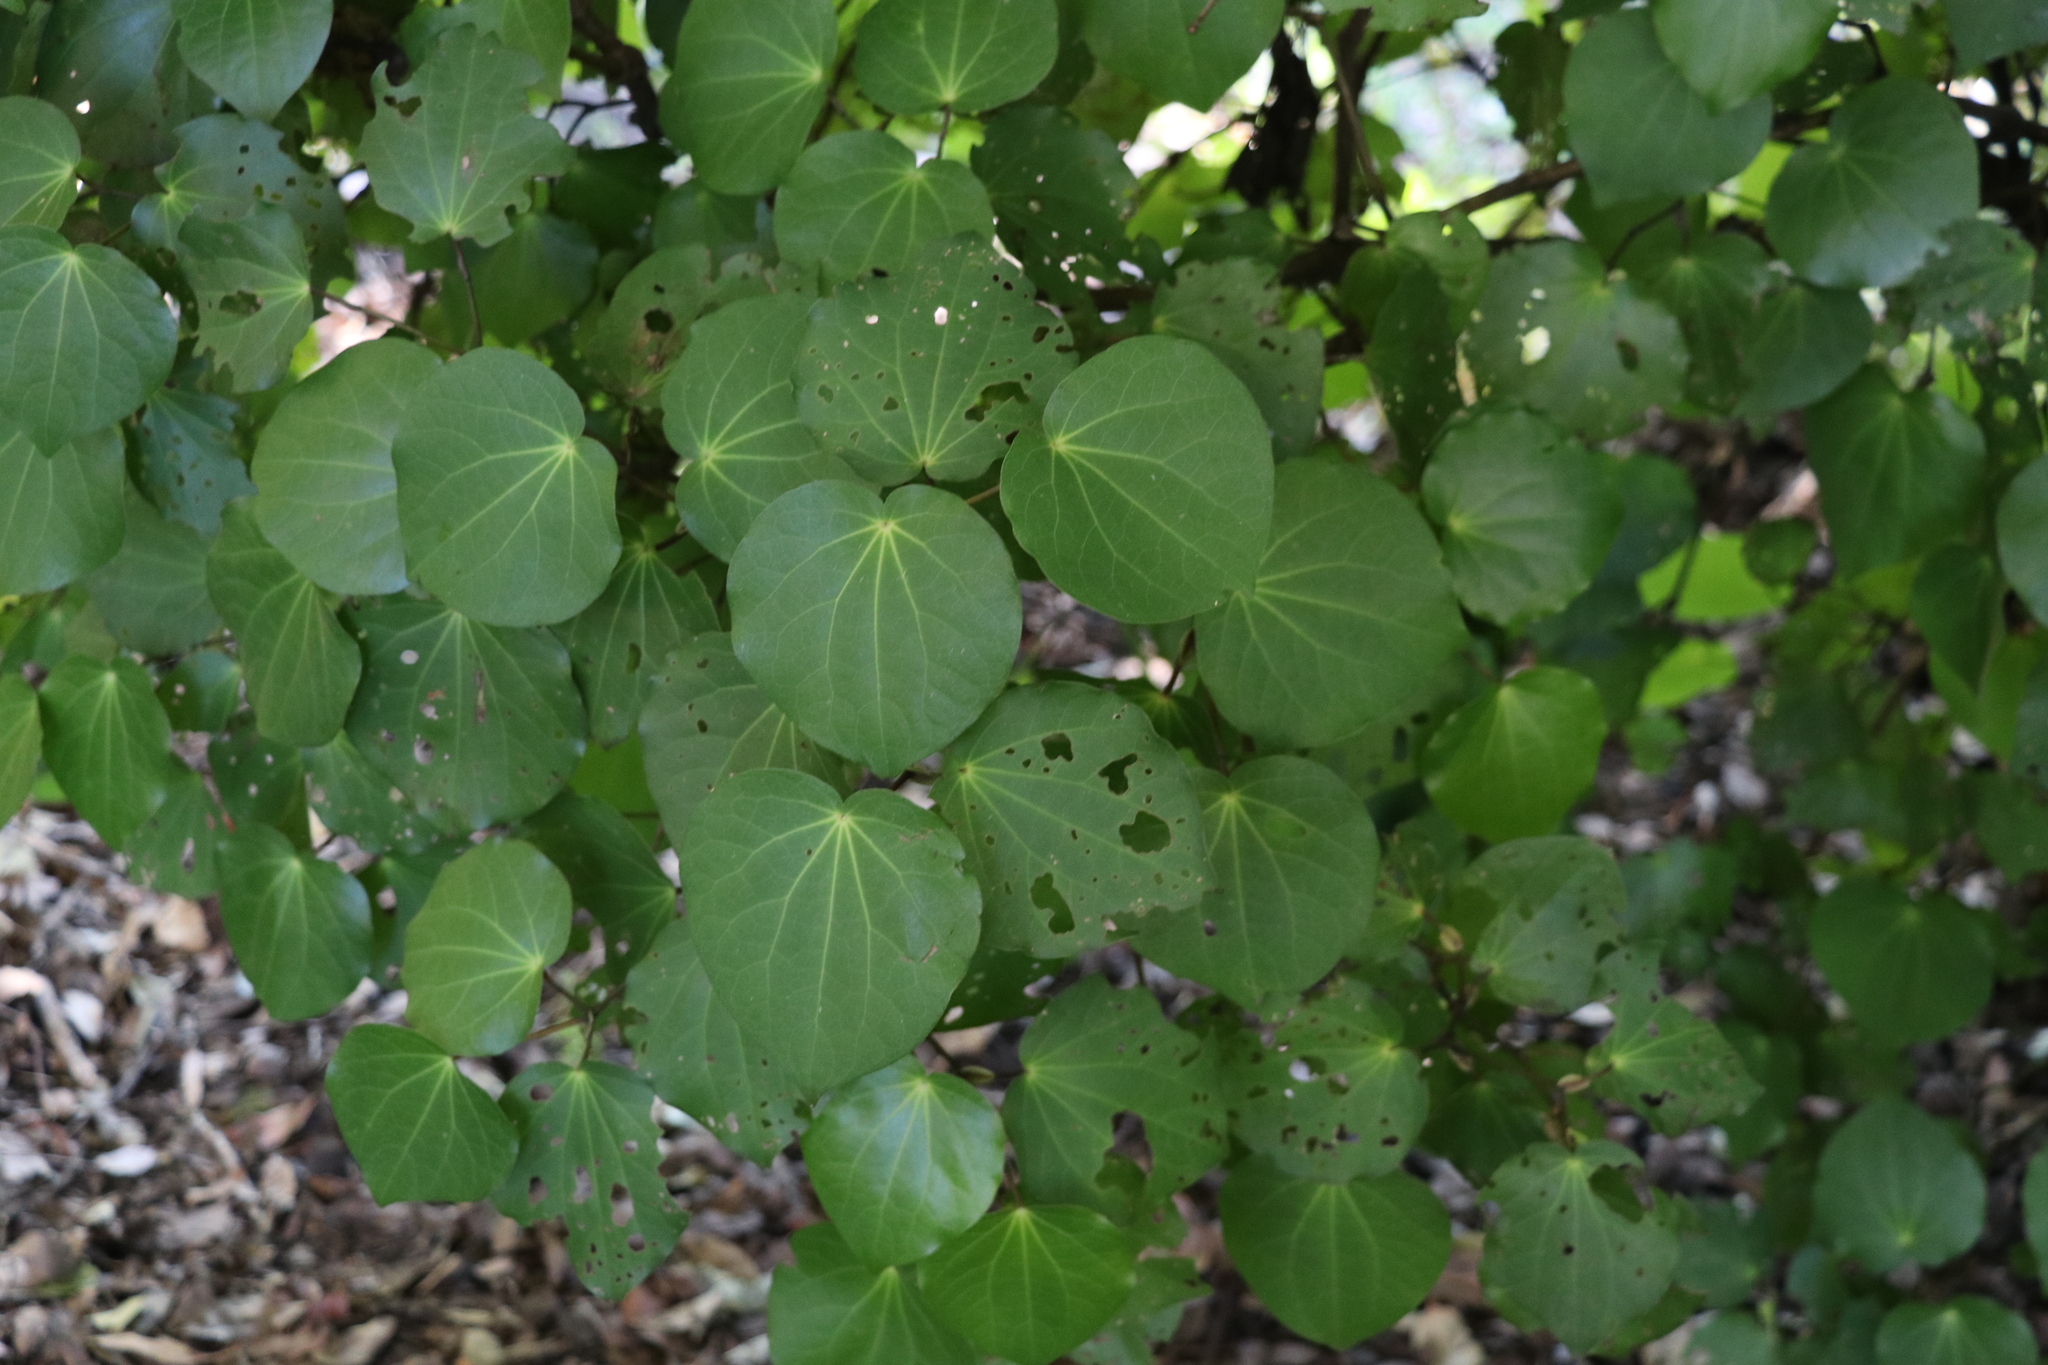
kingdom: Plantae
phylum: Tracheophyta
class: Magnoliopsida
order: Piperales
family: Piperaceae
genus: Macropiper
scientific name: Macropiper excelsum
